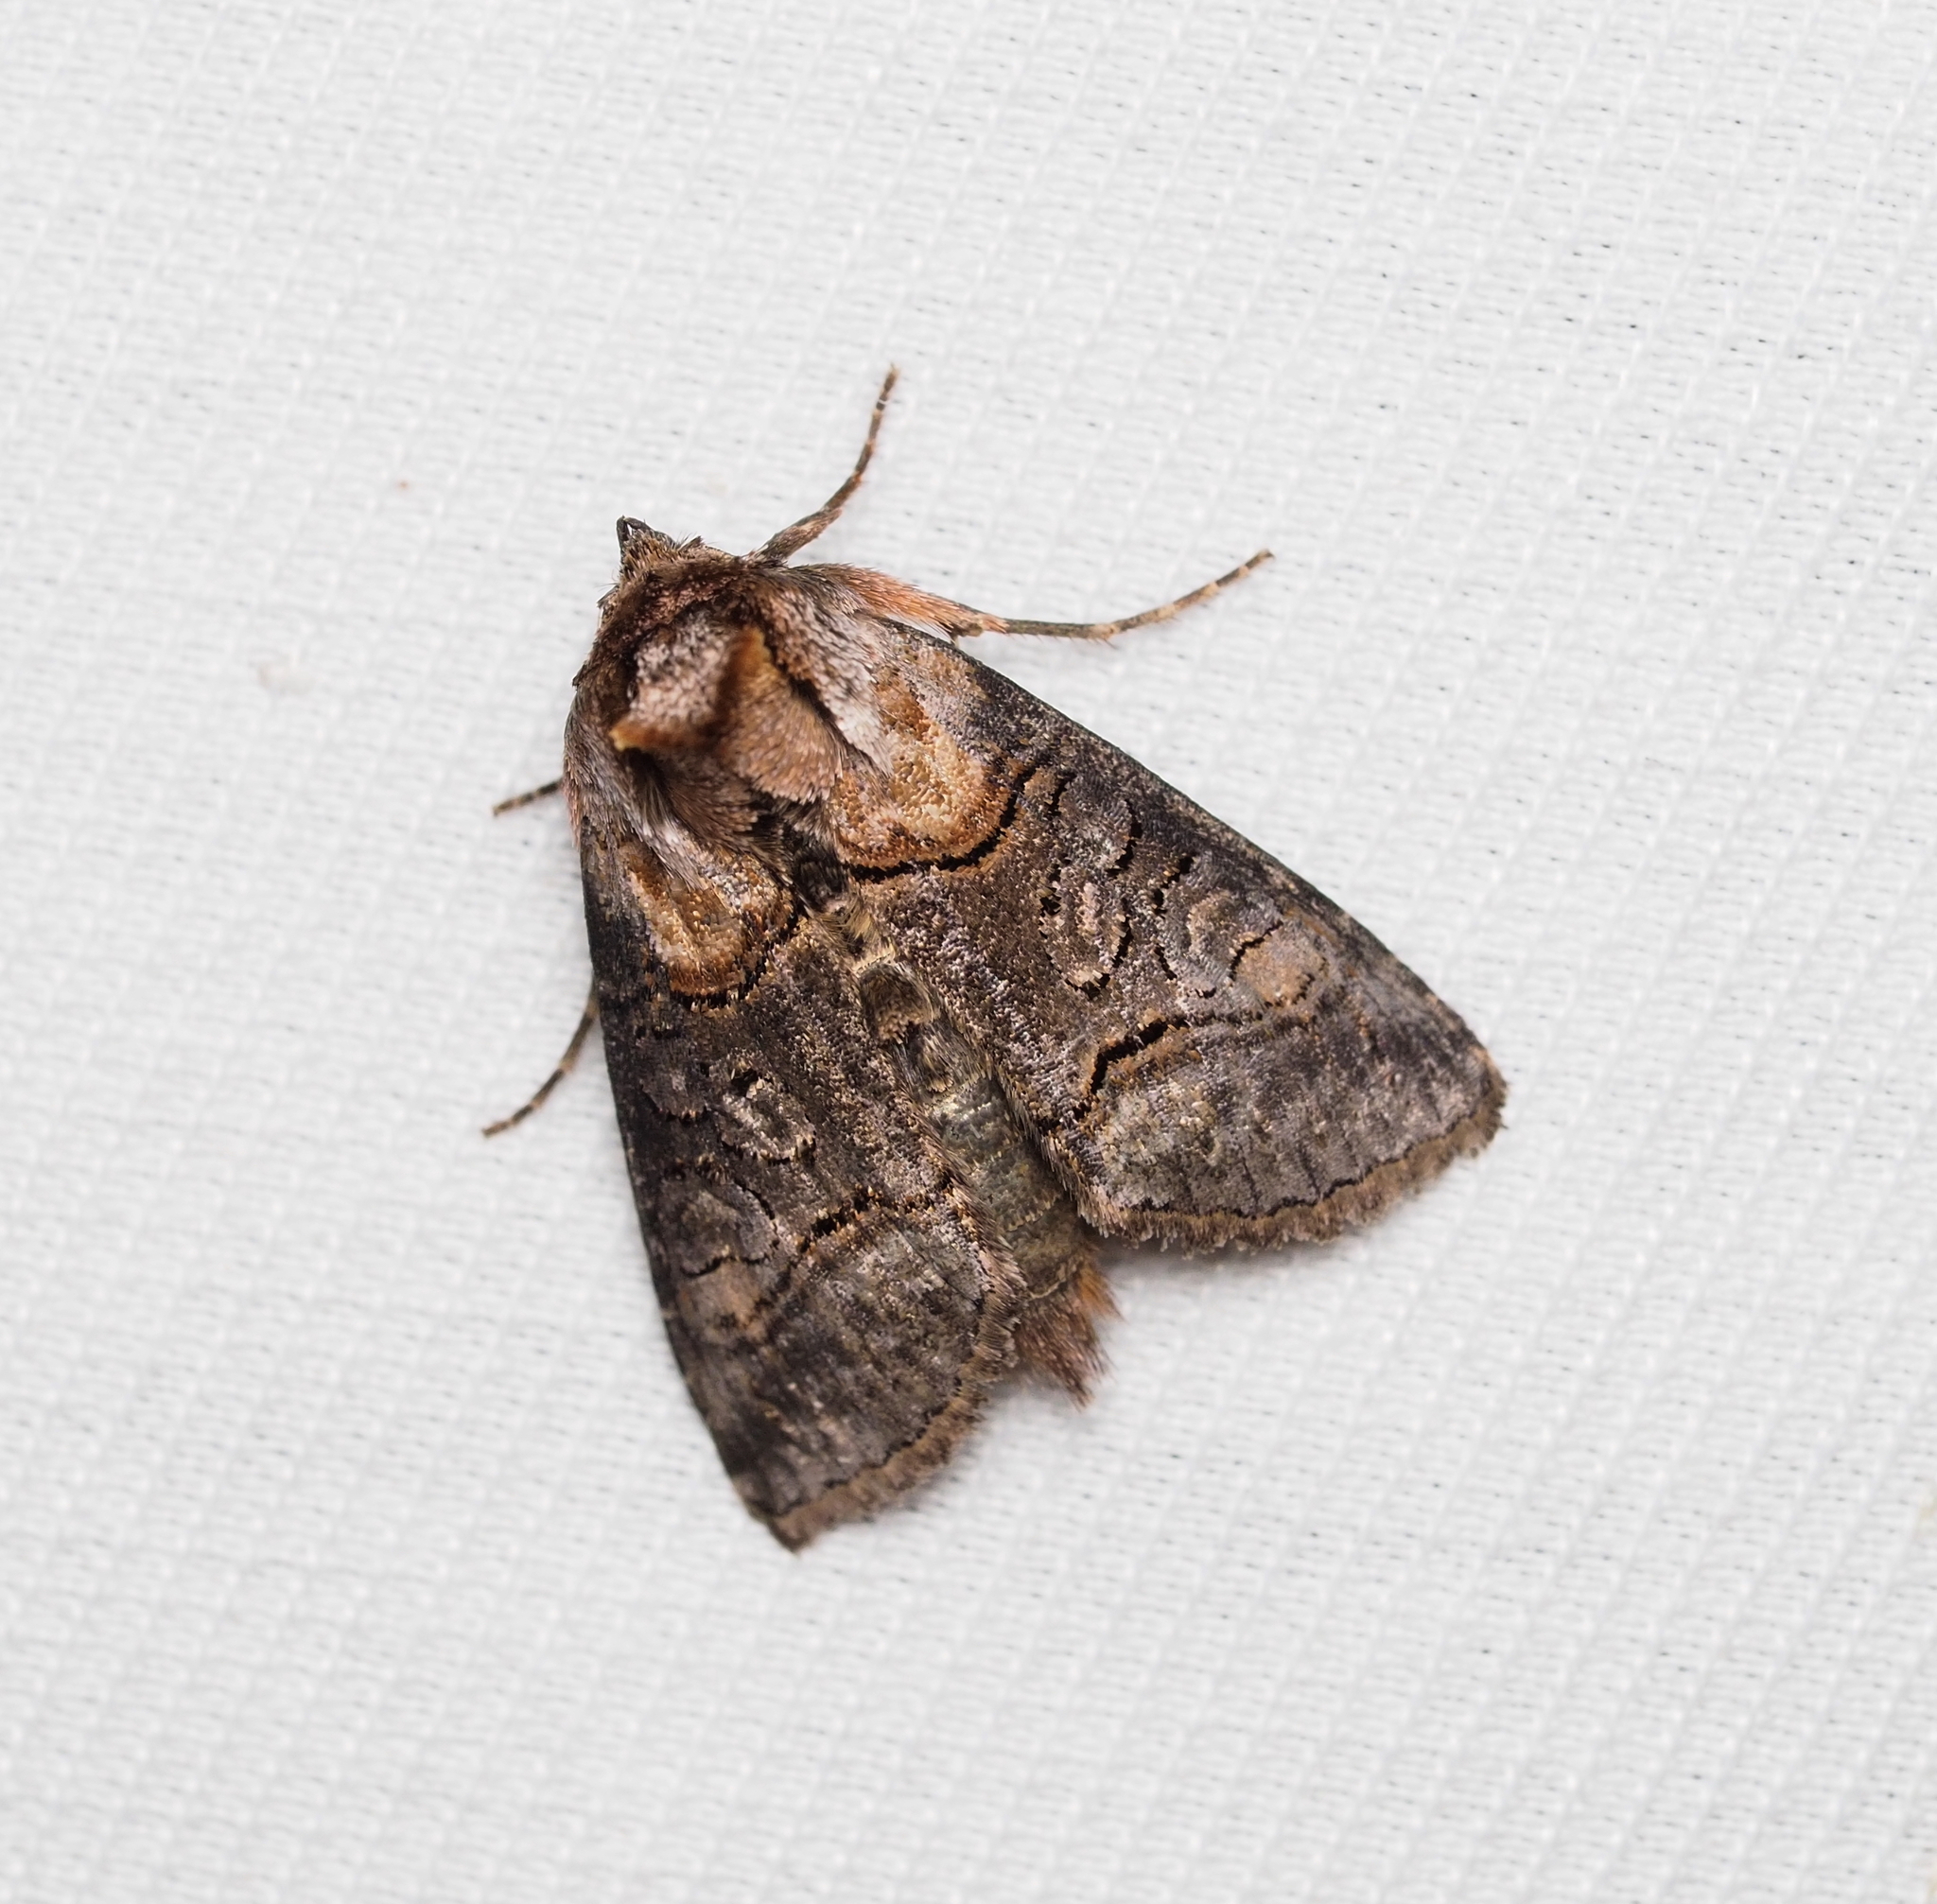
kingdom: Animalia
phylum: Arthropoda
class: Insecta
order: Lepidoptera
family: Noctuidae
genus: Abrostola
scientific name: Abrostola triplasia
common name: Dark spectacle
